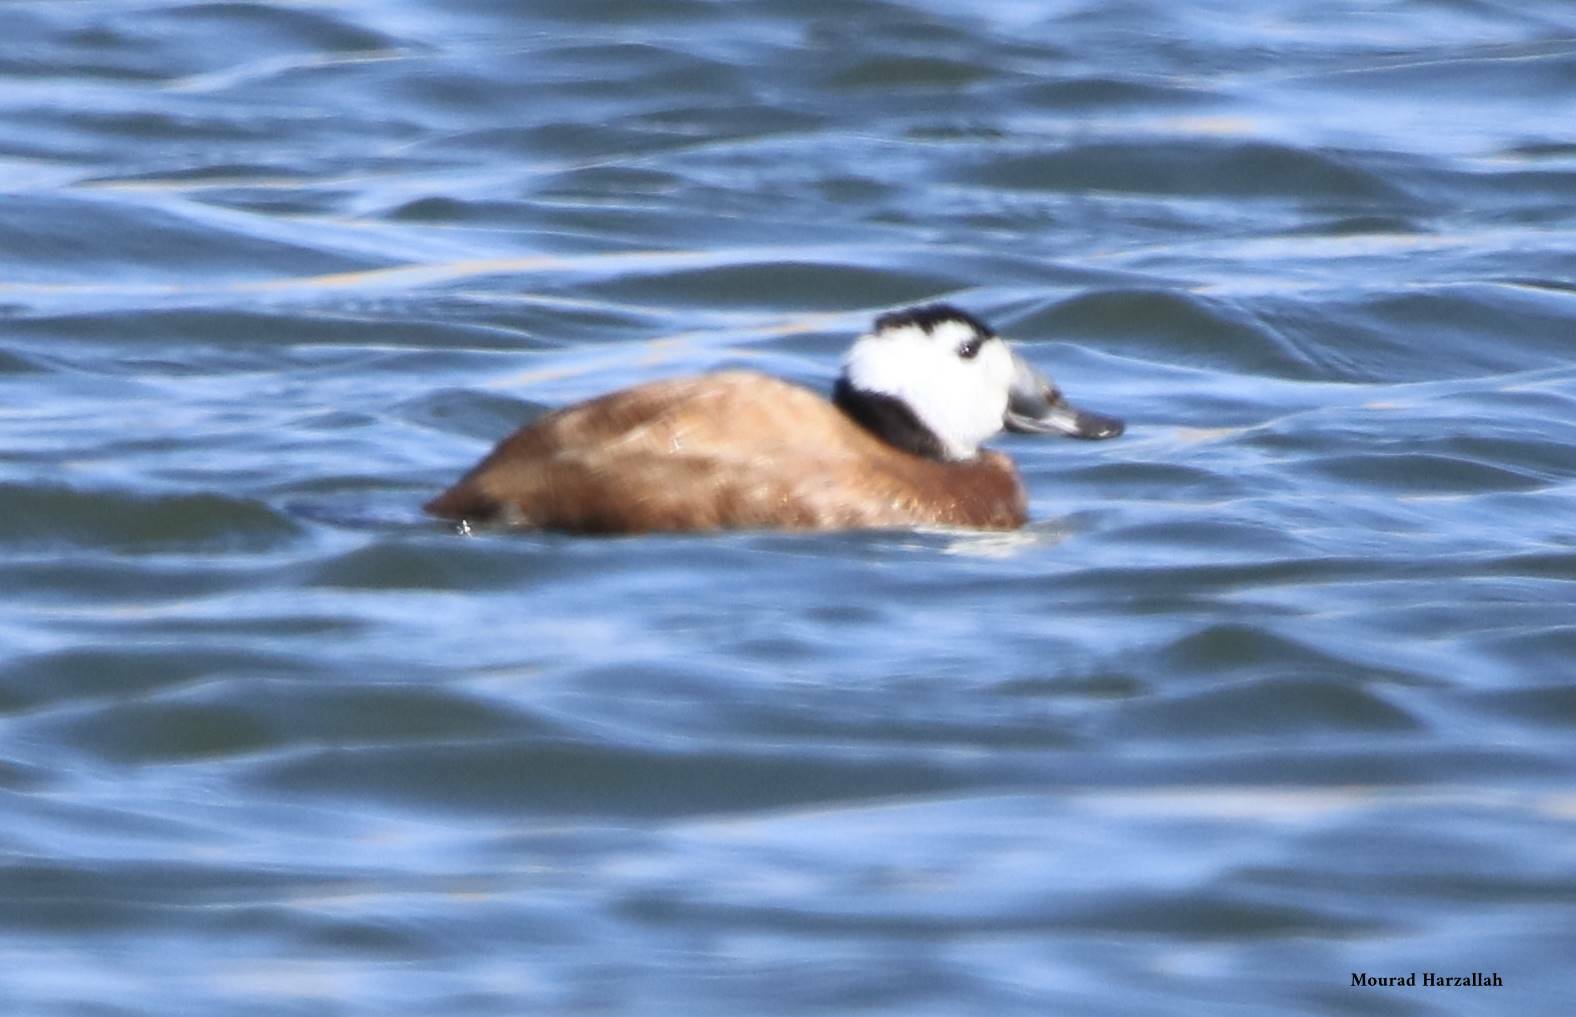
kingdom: Animalia
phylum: Chordata
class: Aves
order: Anseriformes
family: Anatidae
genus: Oxyura
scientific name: Oxyura leucocephala
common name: White-headed duck
